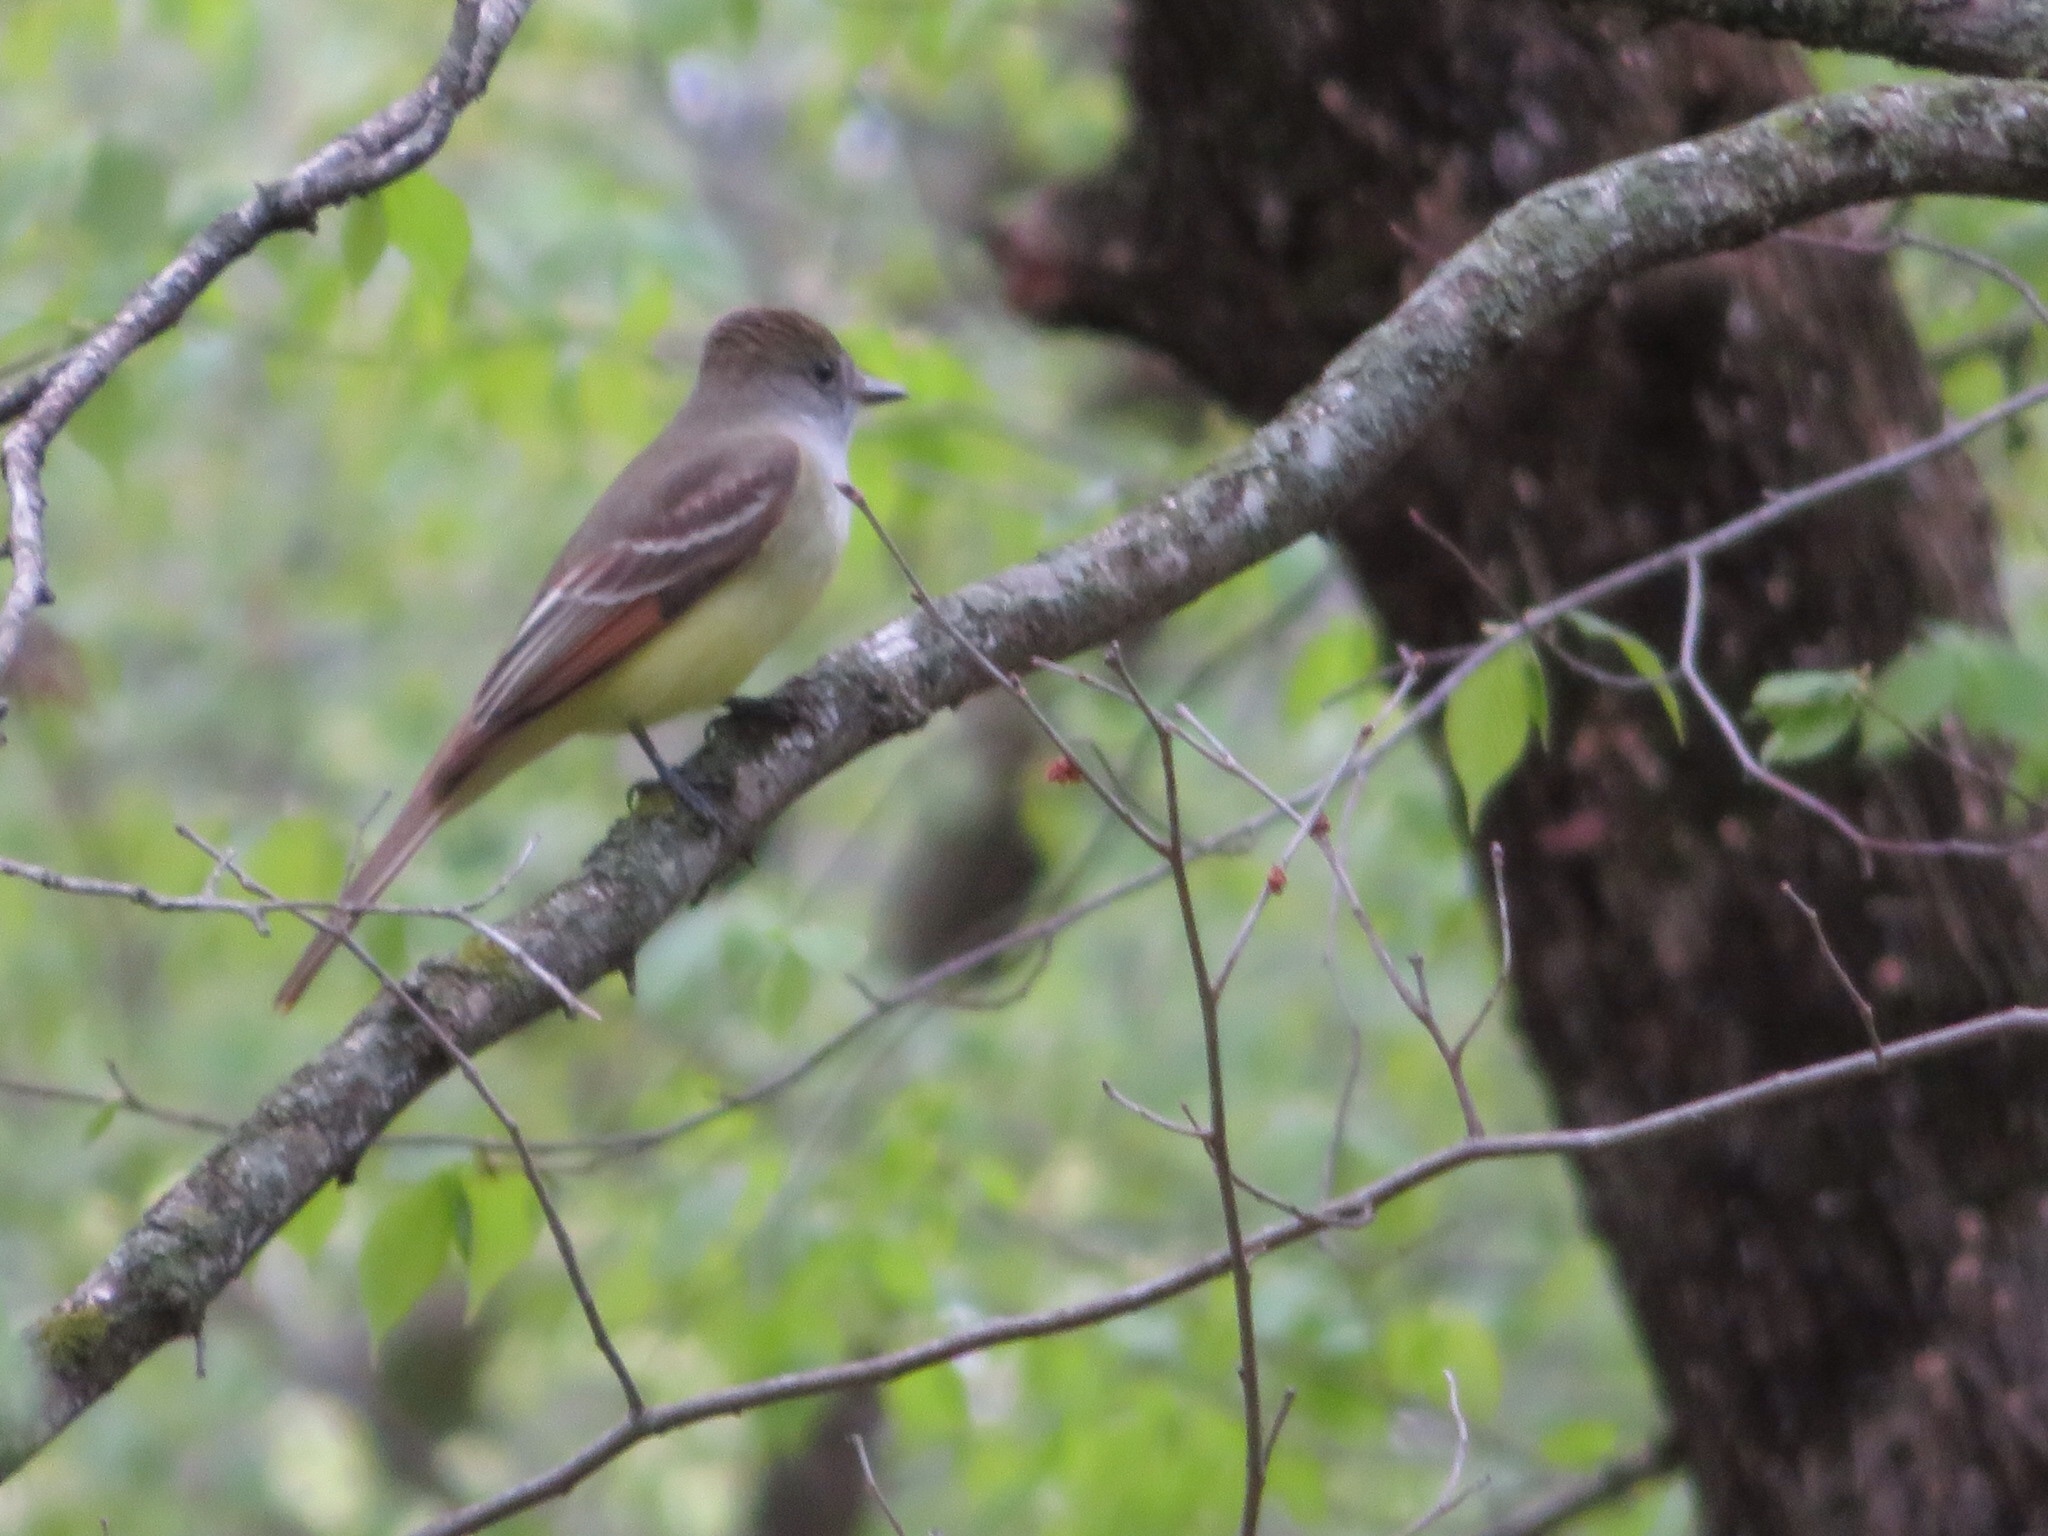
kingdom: Animalia
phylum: Chordata
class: Aves
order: Passeriformes
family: Tyrannidae
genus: Myiarchus
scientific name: Myiarchus crinitus
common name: Great crested flycatcher
